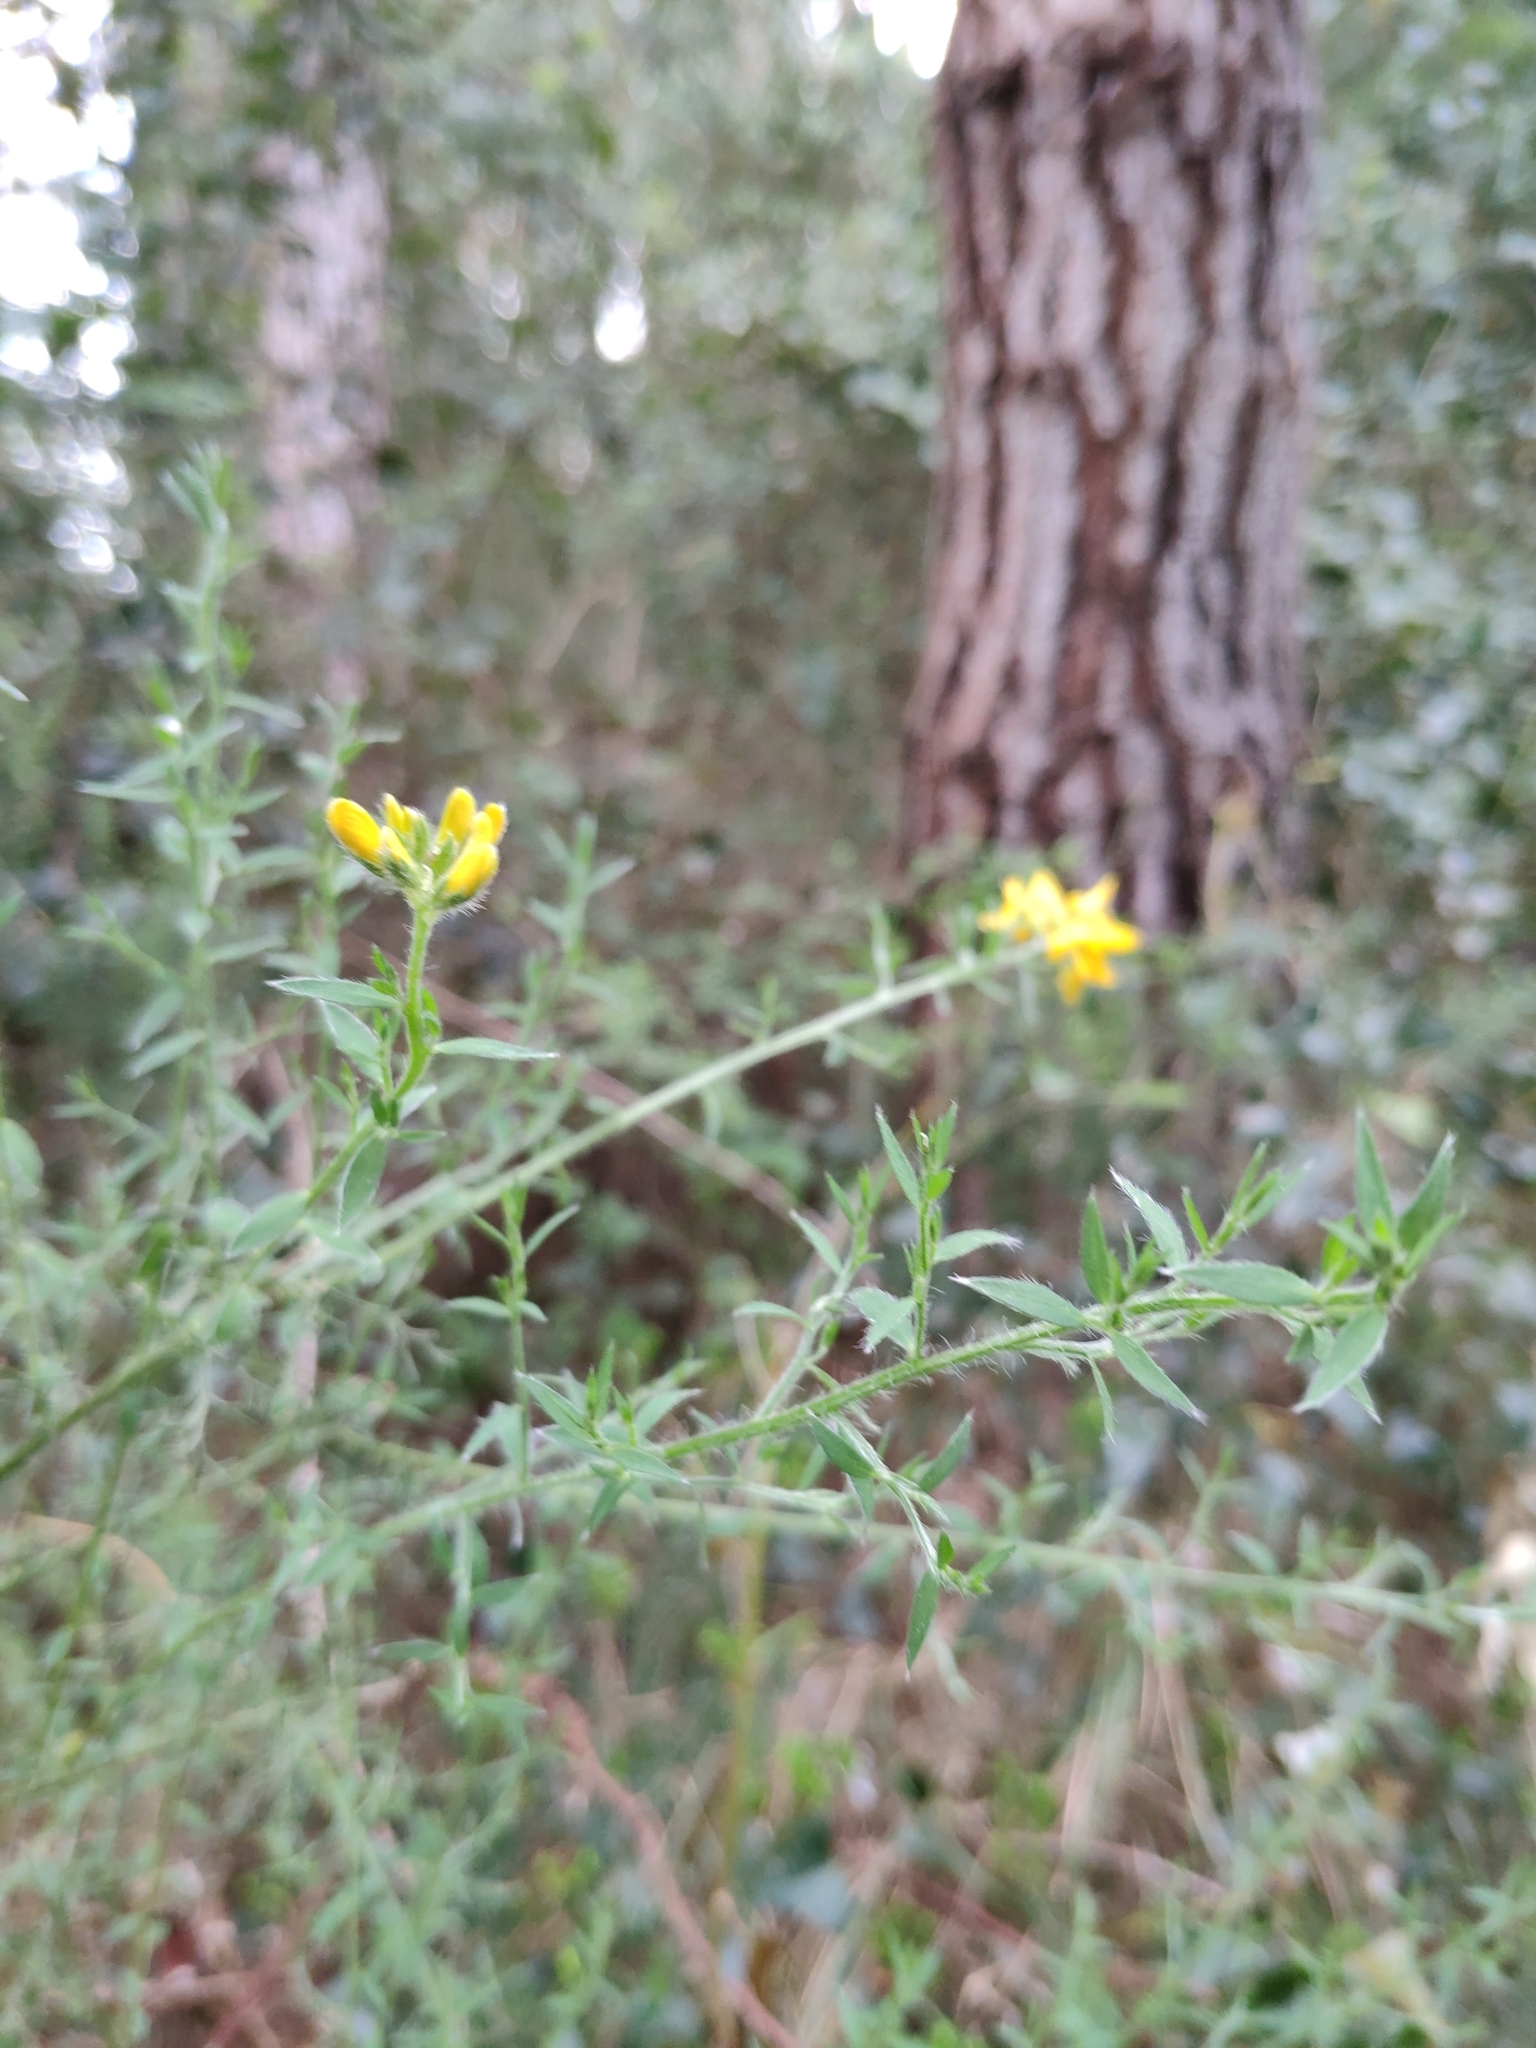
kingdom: Plantae
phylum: Tracheophyta
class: Magnoliopsida
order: Fabales
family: Fabaceae
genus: Genista
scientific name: Genista hispanica
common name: Spanish gorse
